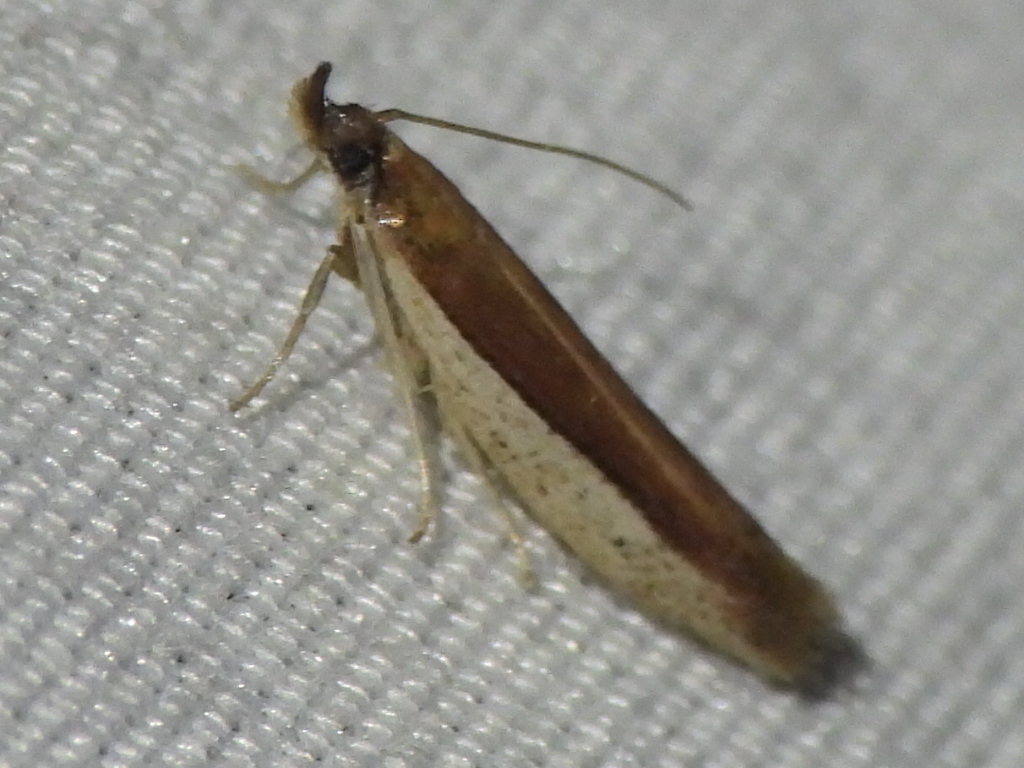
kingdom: Animalia
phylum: Arthropoda
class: Insecta
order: Lepidoptera
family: Pyralidae
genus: Tampa
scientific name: Tampa dimediatella
